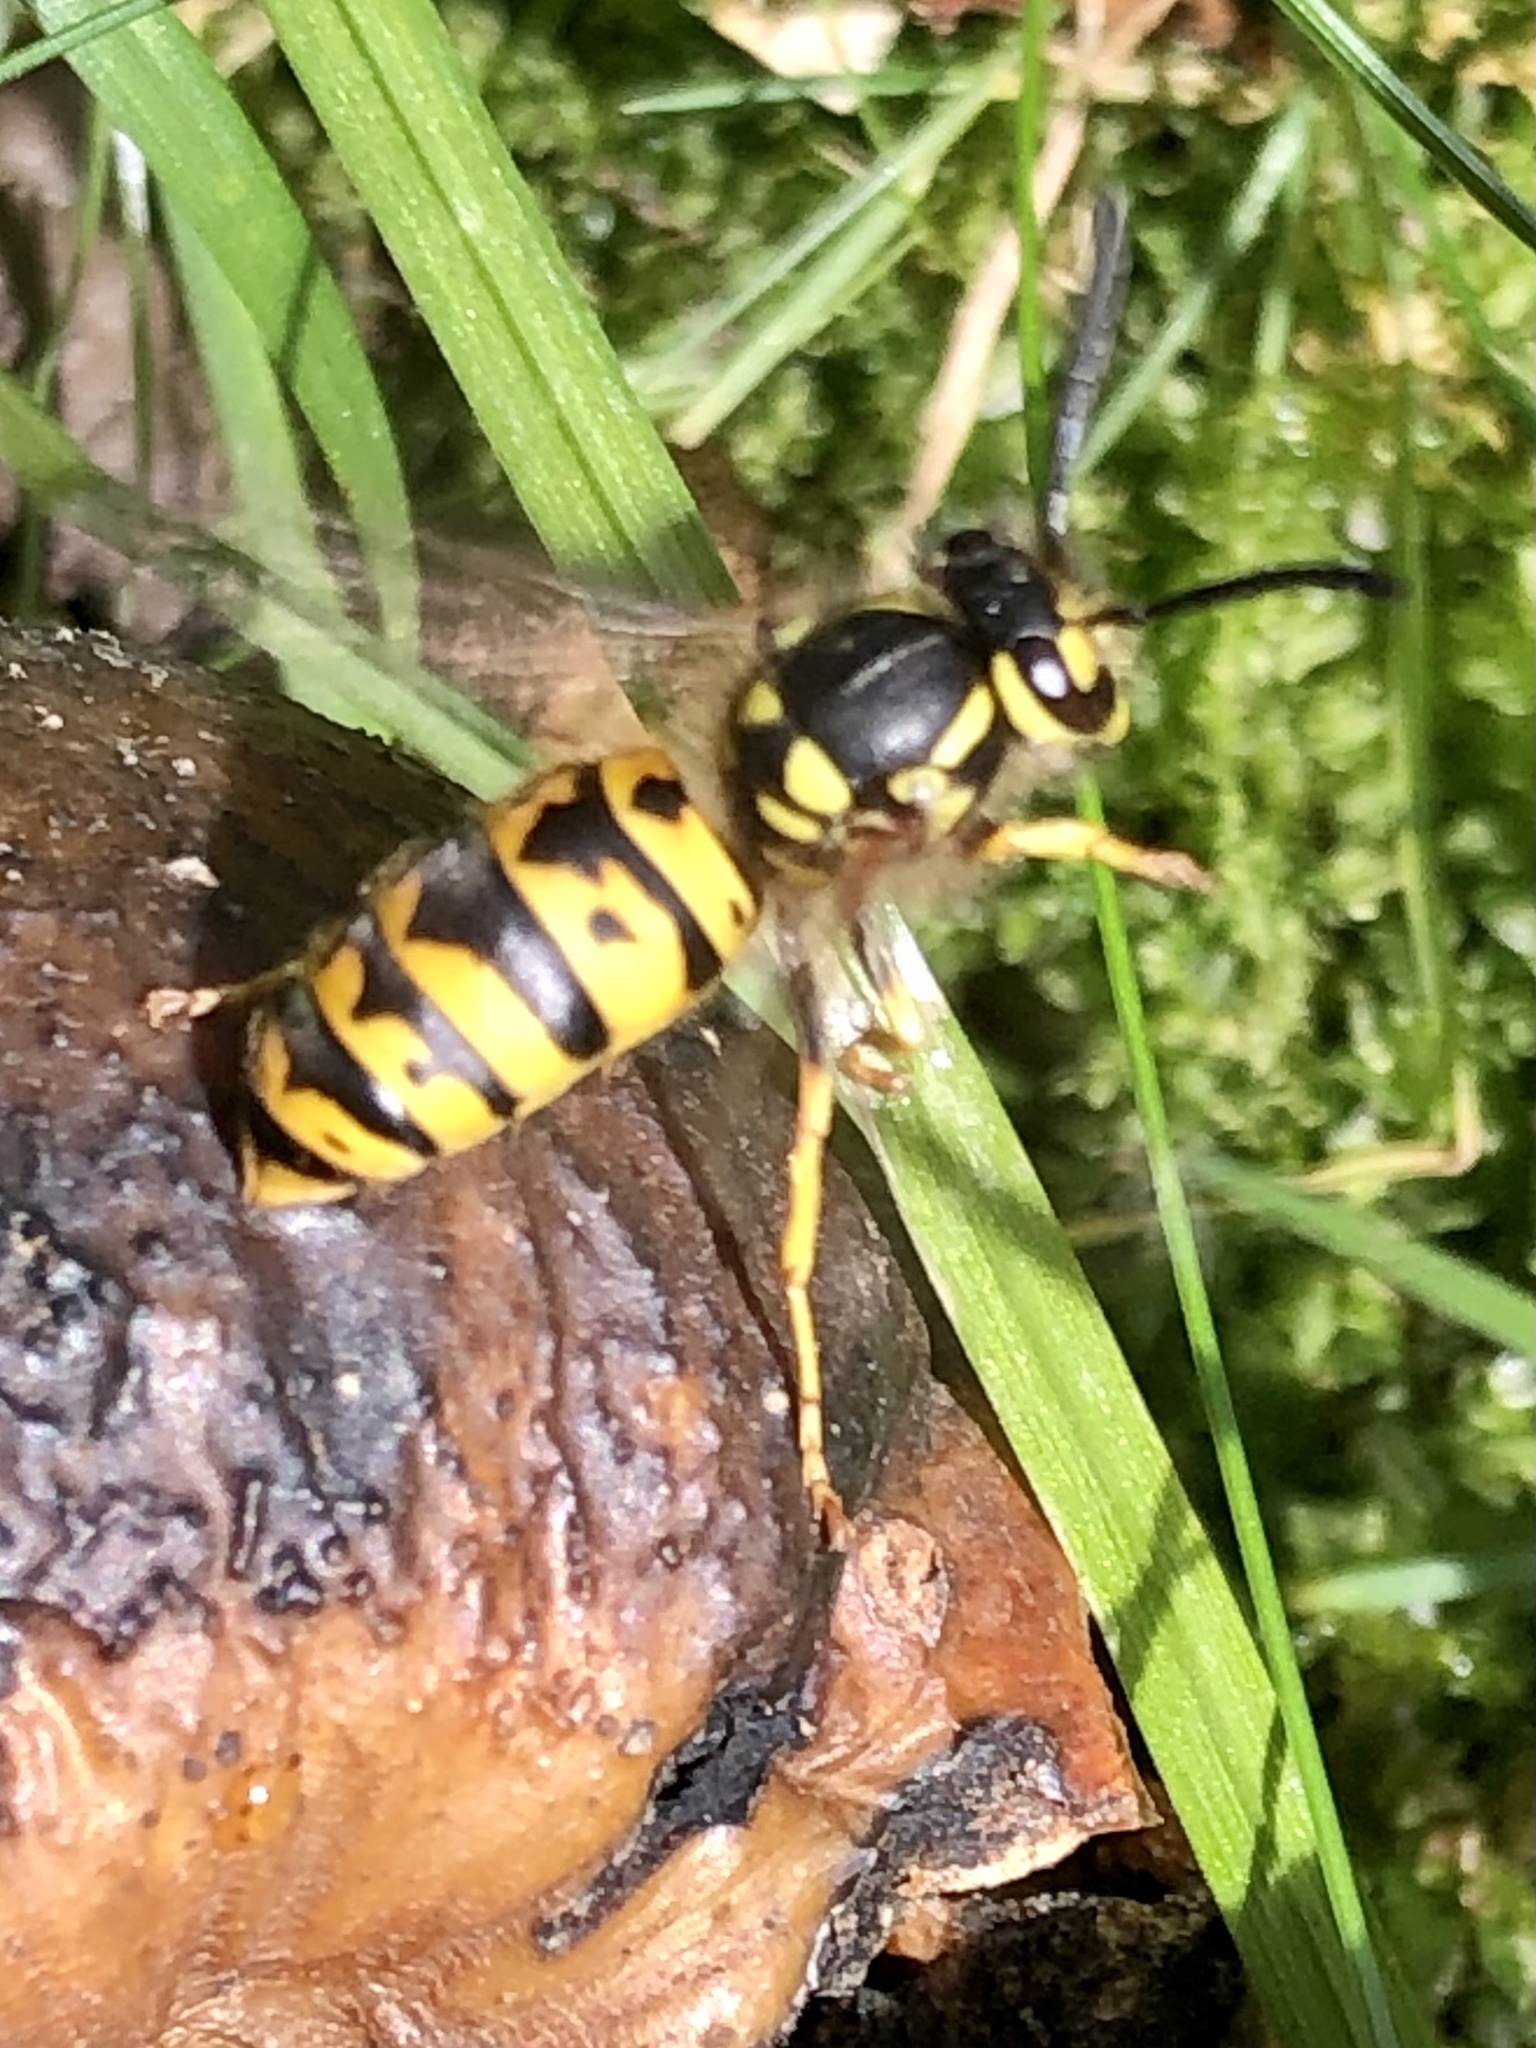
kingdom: Animalia
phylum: Arthropoda
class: Insecta
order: Hymenoptera
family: Vespidae
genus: Vespula
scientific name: Vespula germanica
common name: German wasp
